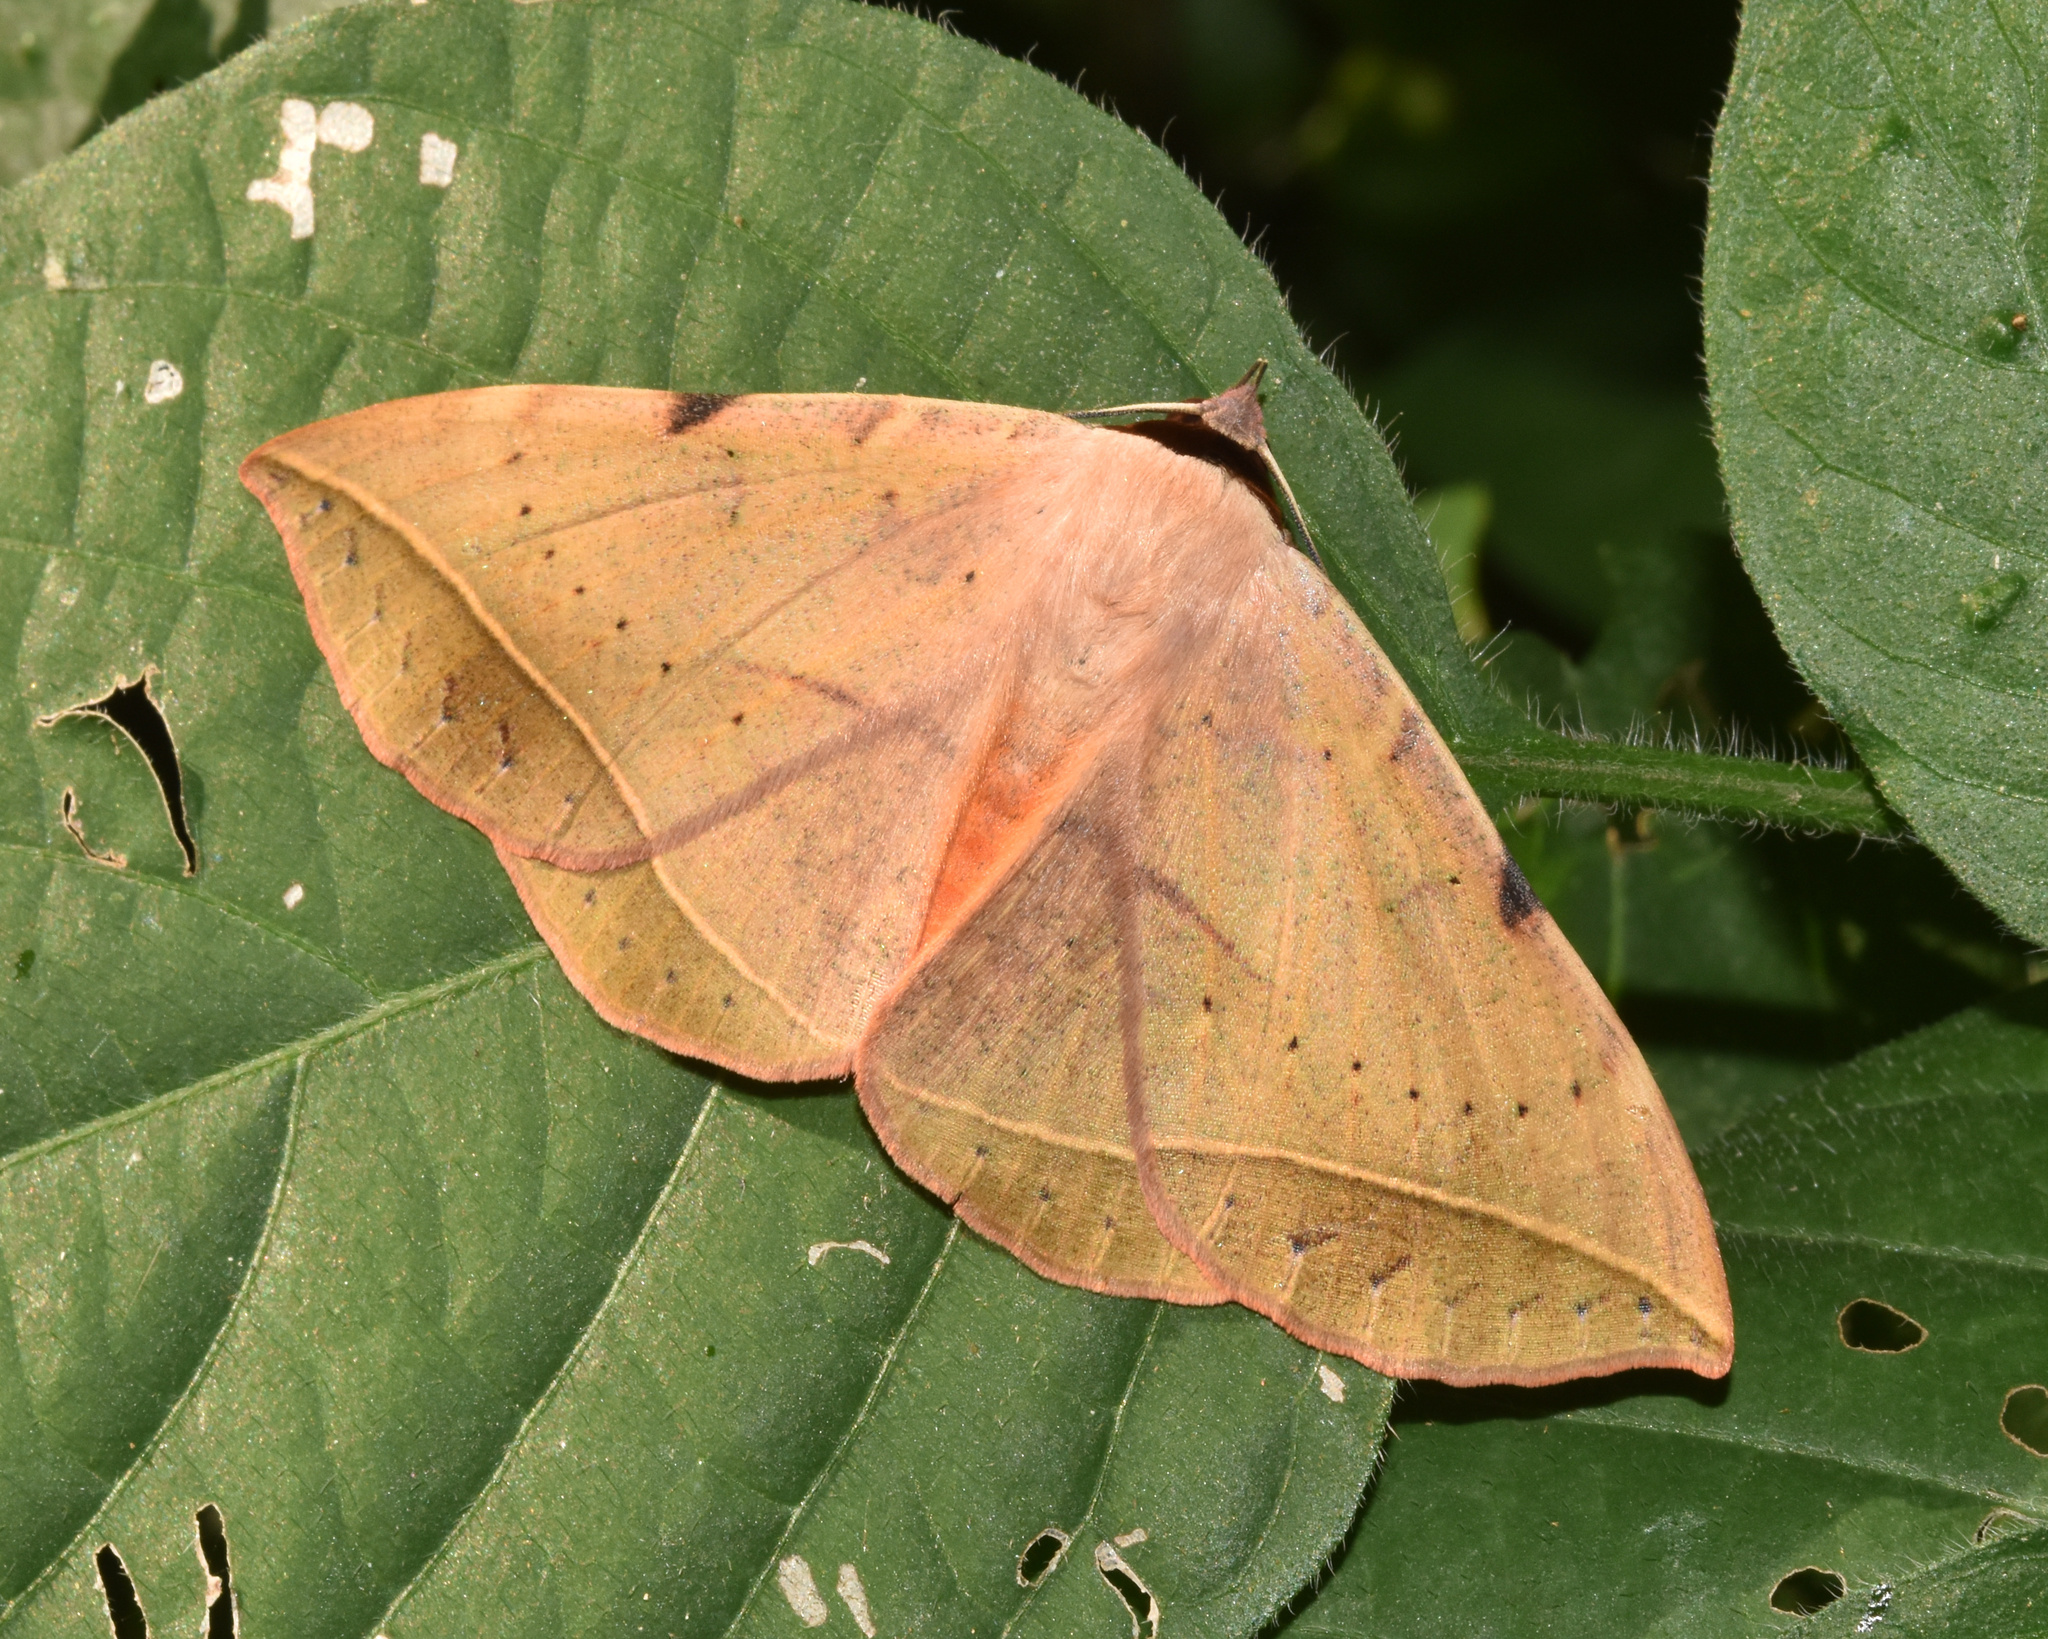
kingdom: Animalia
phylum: Arthropoda
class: Insecta
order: Lepidoptera
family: Erebidae
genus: Hypopyra
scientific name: Hypopyra capensis
